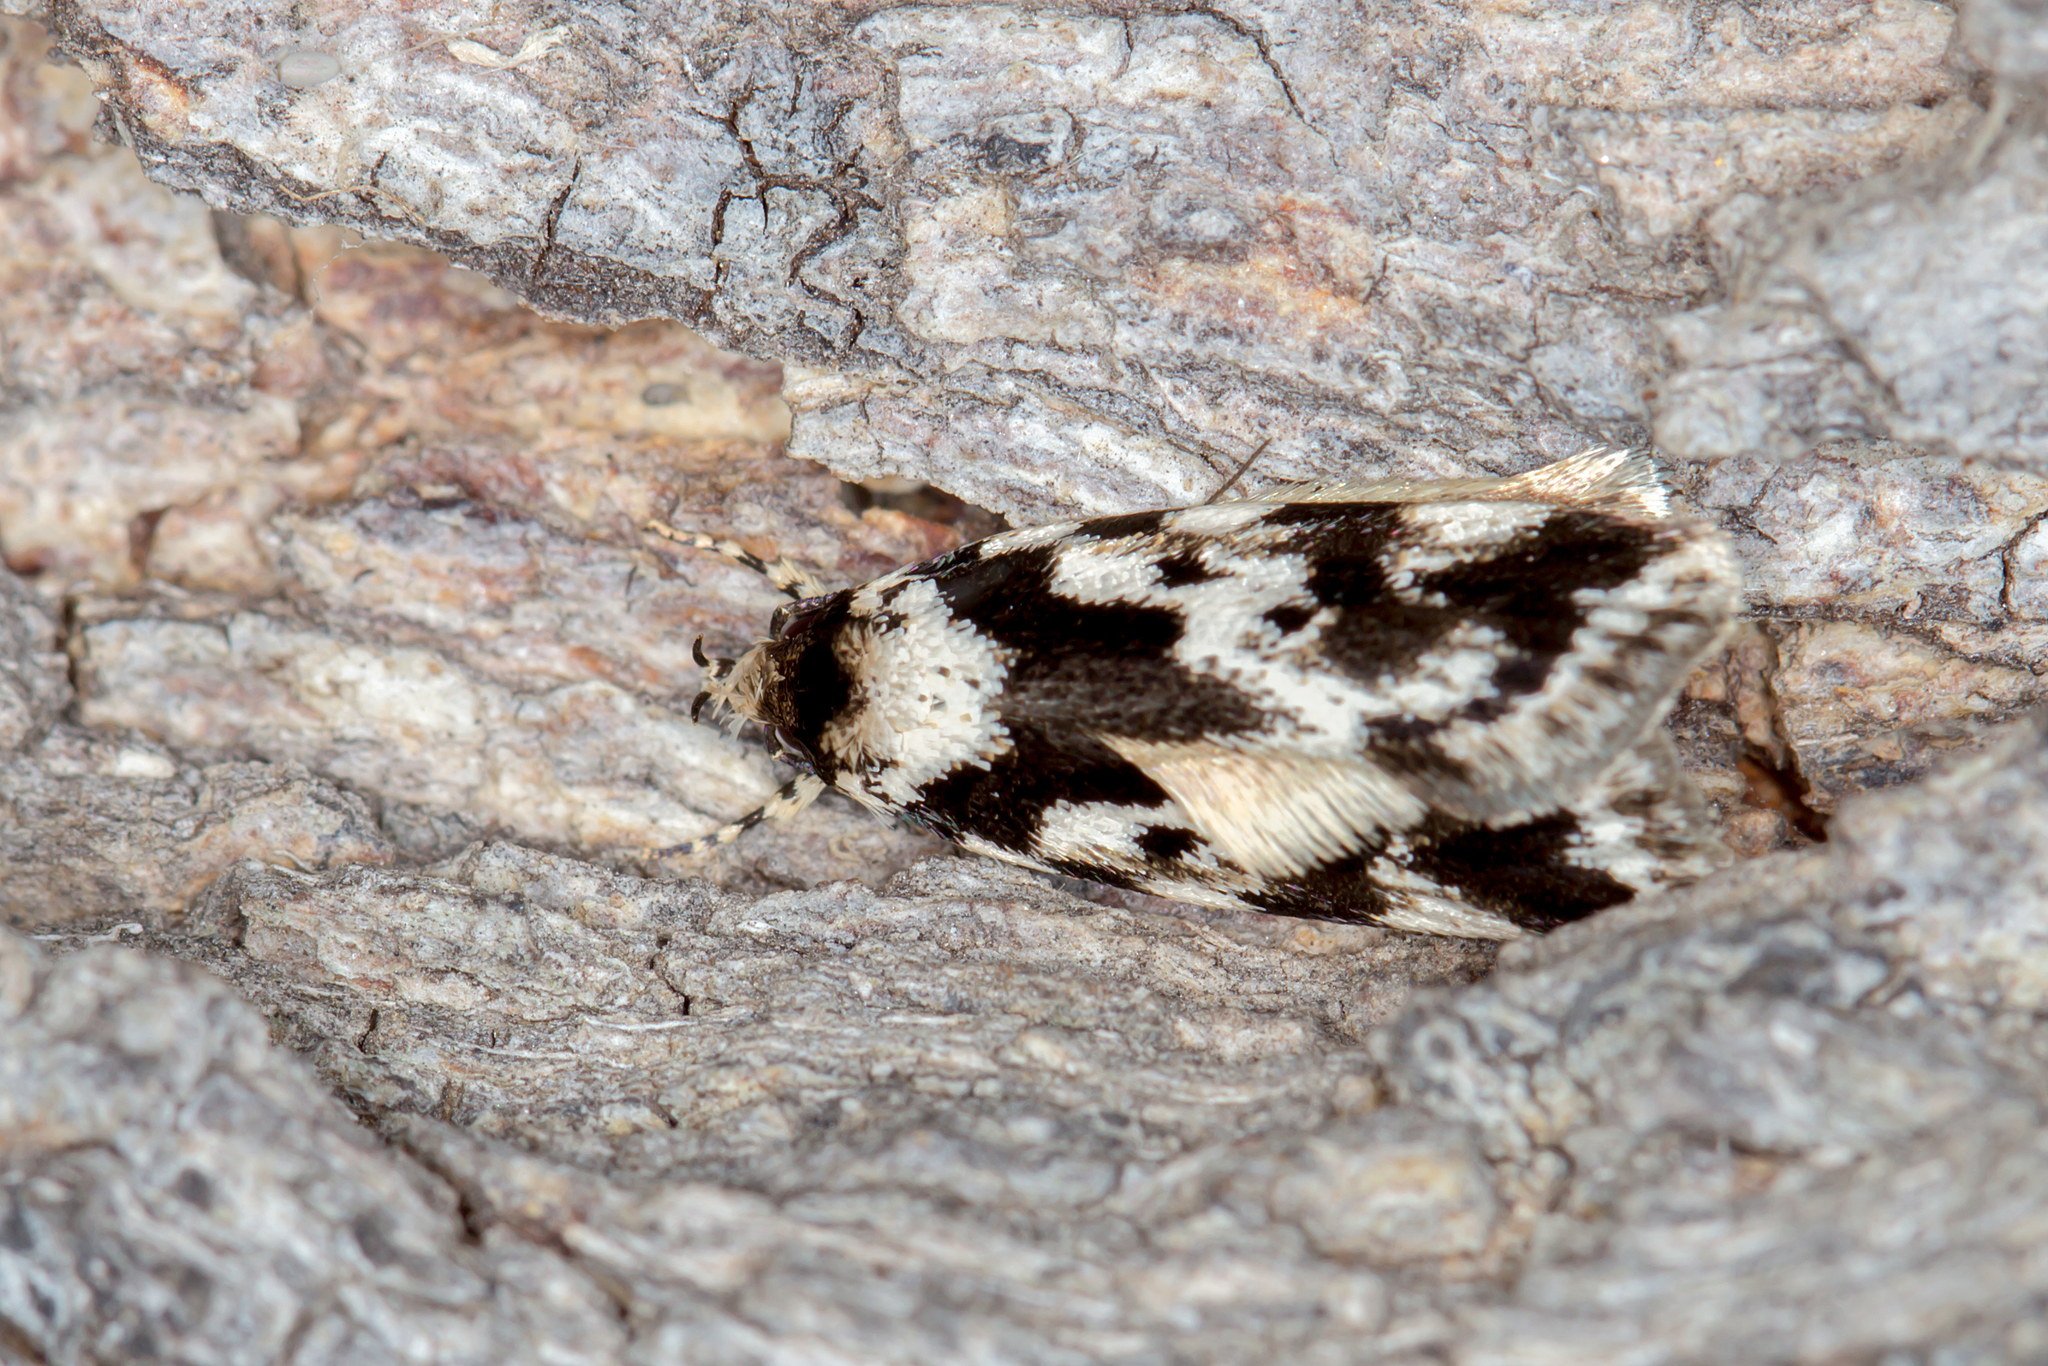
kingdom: Animalia
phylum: Arthropoda
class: Insecta
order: Lepidoptera
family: Oecophoridae
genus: Barea
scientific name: Barea confusella
